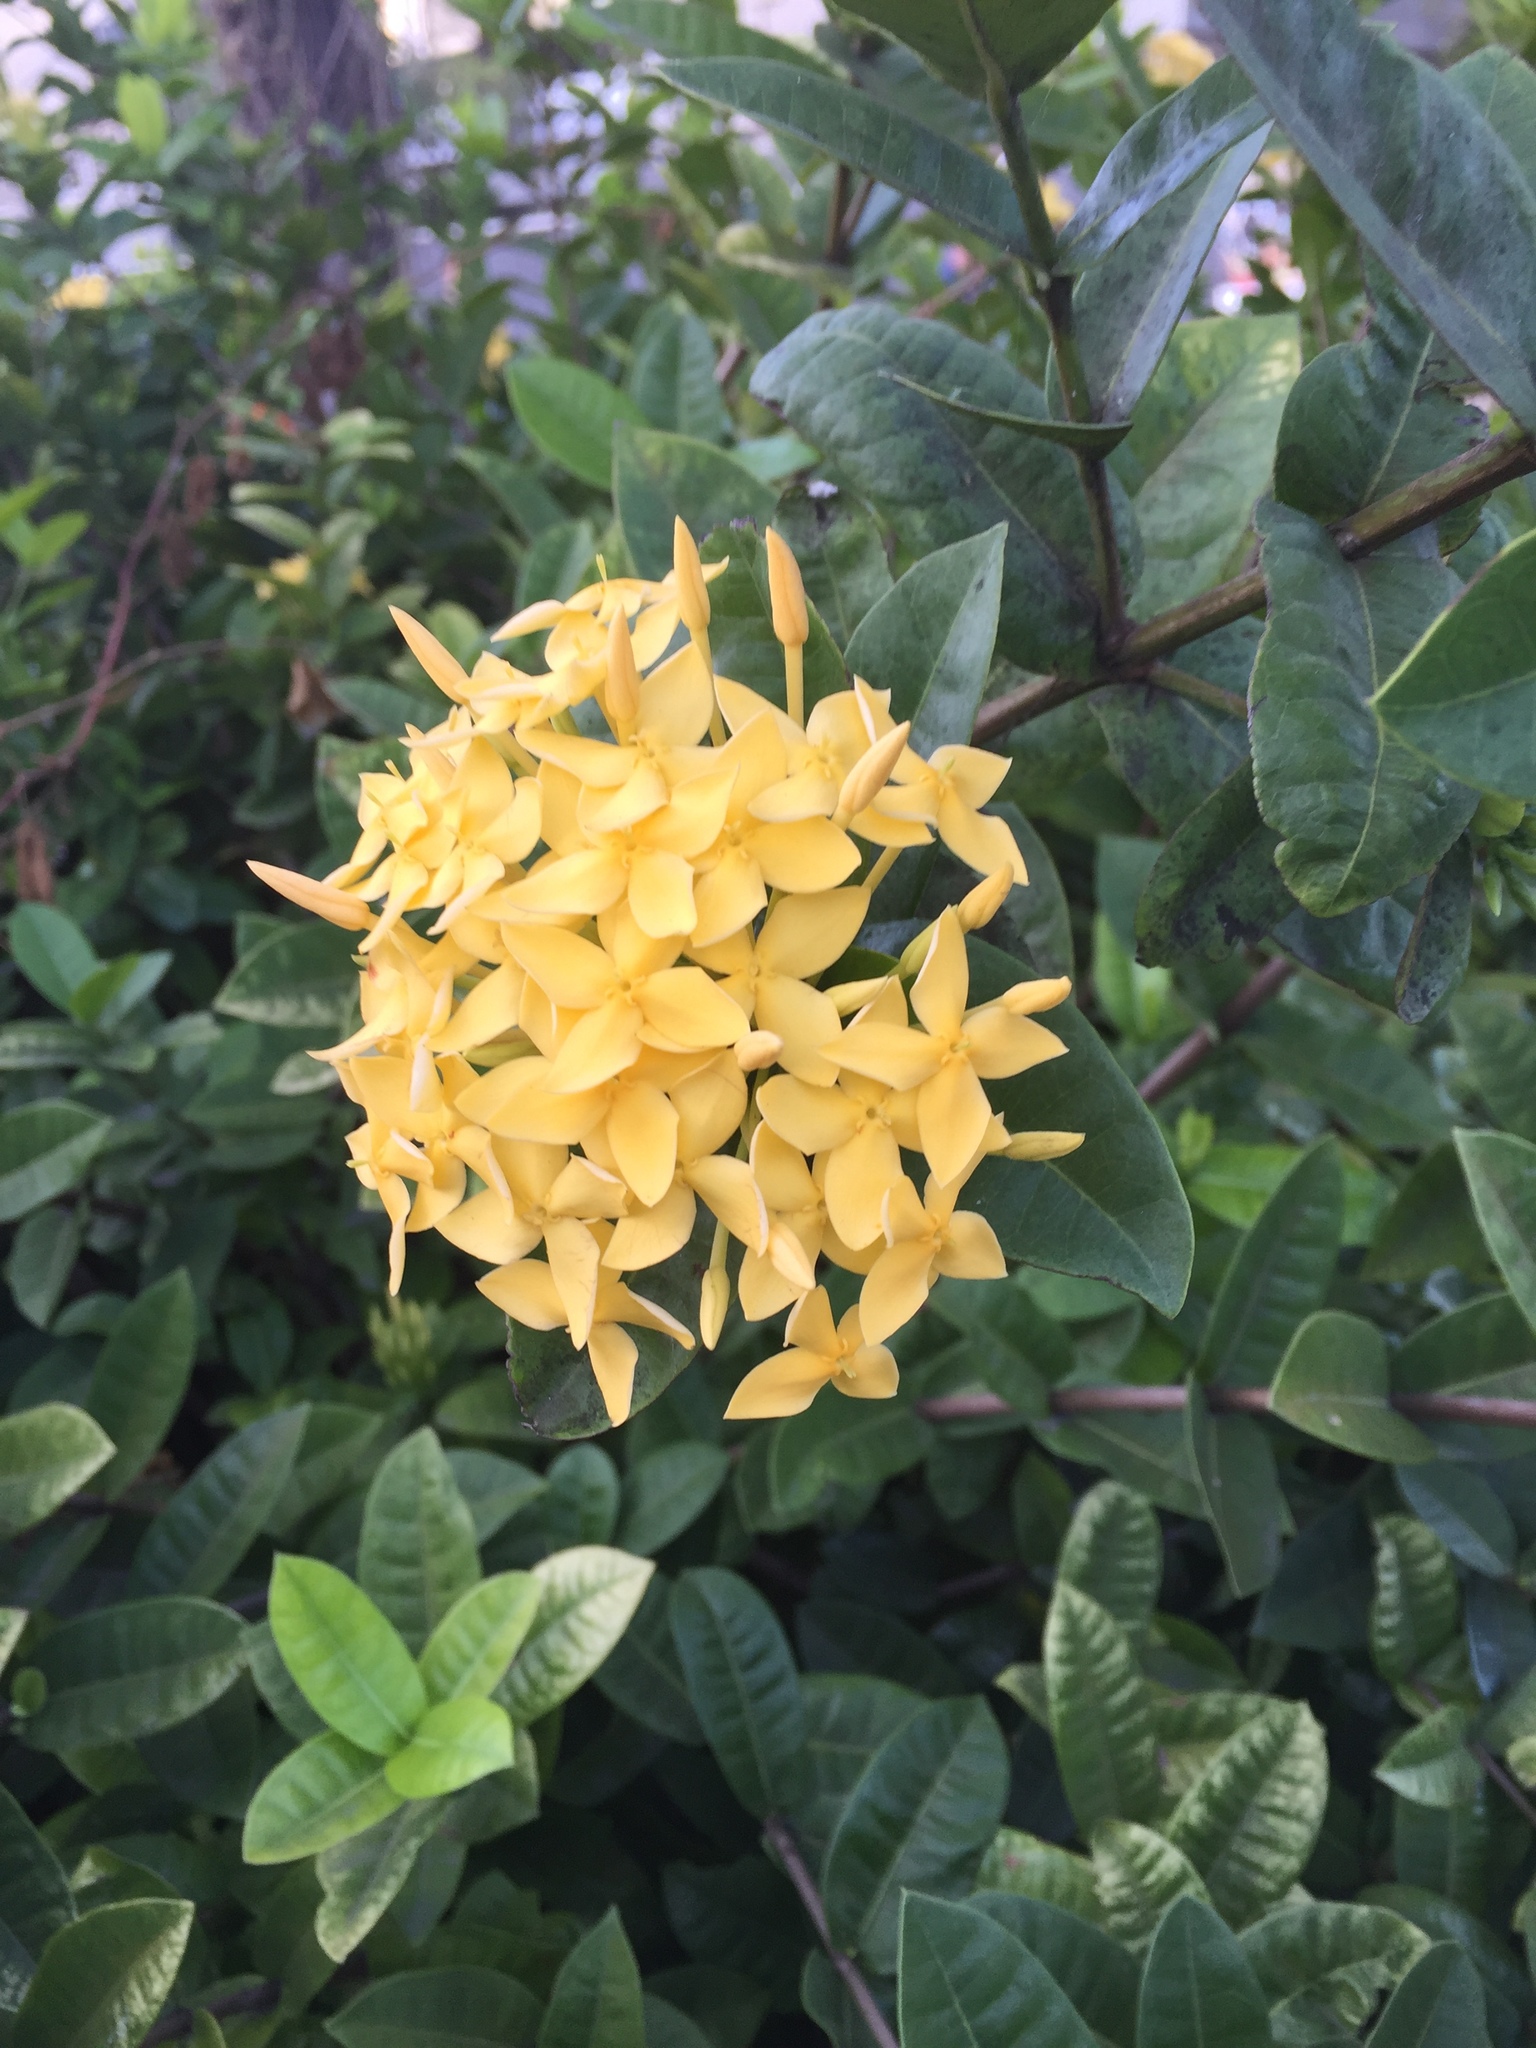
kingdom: Plantae
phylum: Tracheophyta
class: Magnoliopsida
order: Gentianales
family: Rubiaceae
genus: Ixora
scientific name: Ixora coccinea
